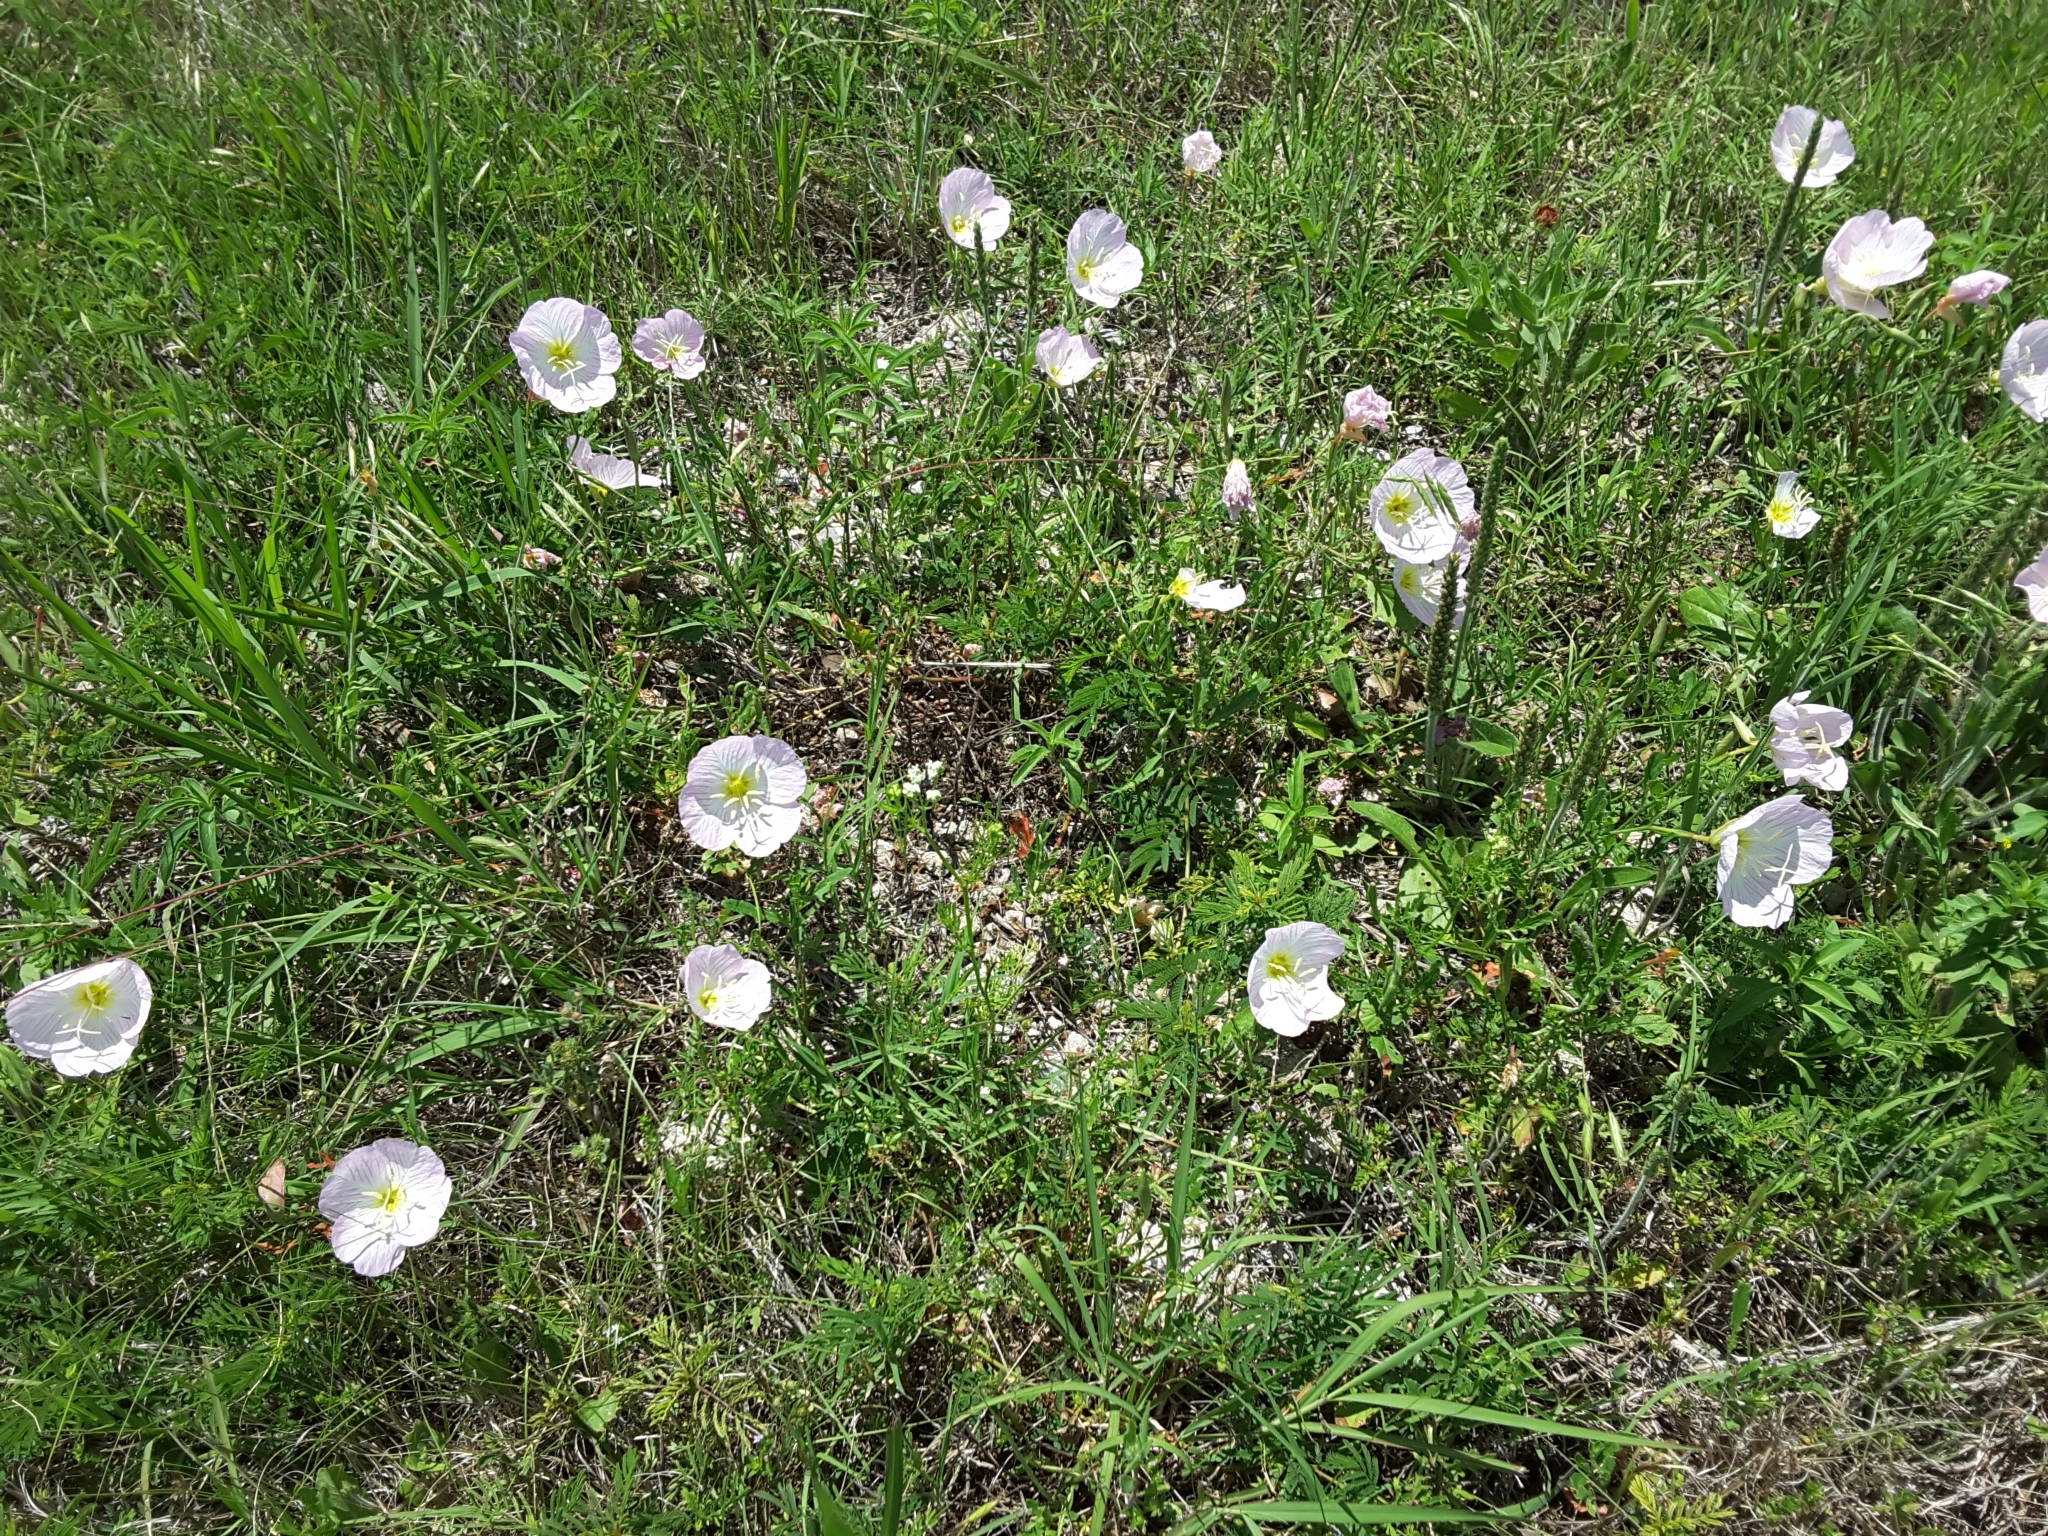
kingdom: Plantae
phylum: Tracheophyta
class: Magnoliopsida
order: Myrtales
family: Onagraceae
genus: Oenothera
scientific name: Oenothera speciosa
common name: White evening-primrose
